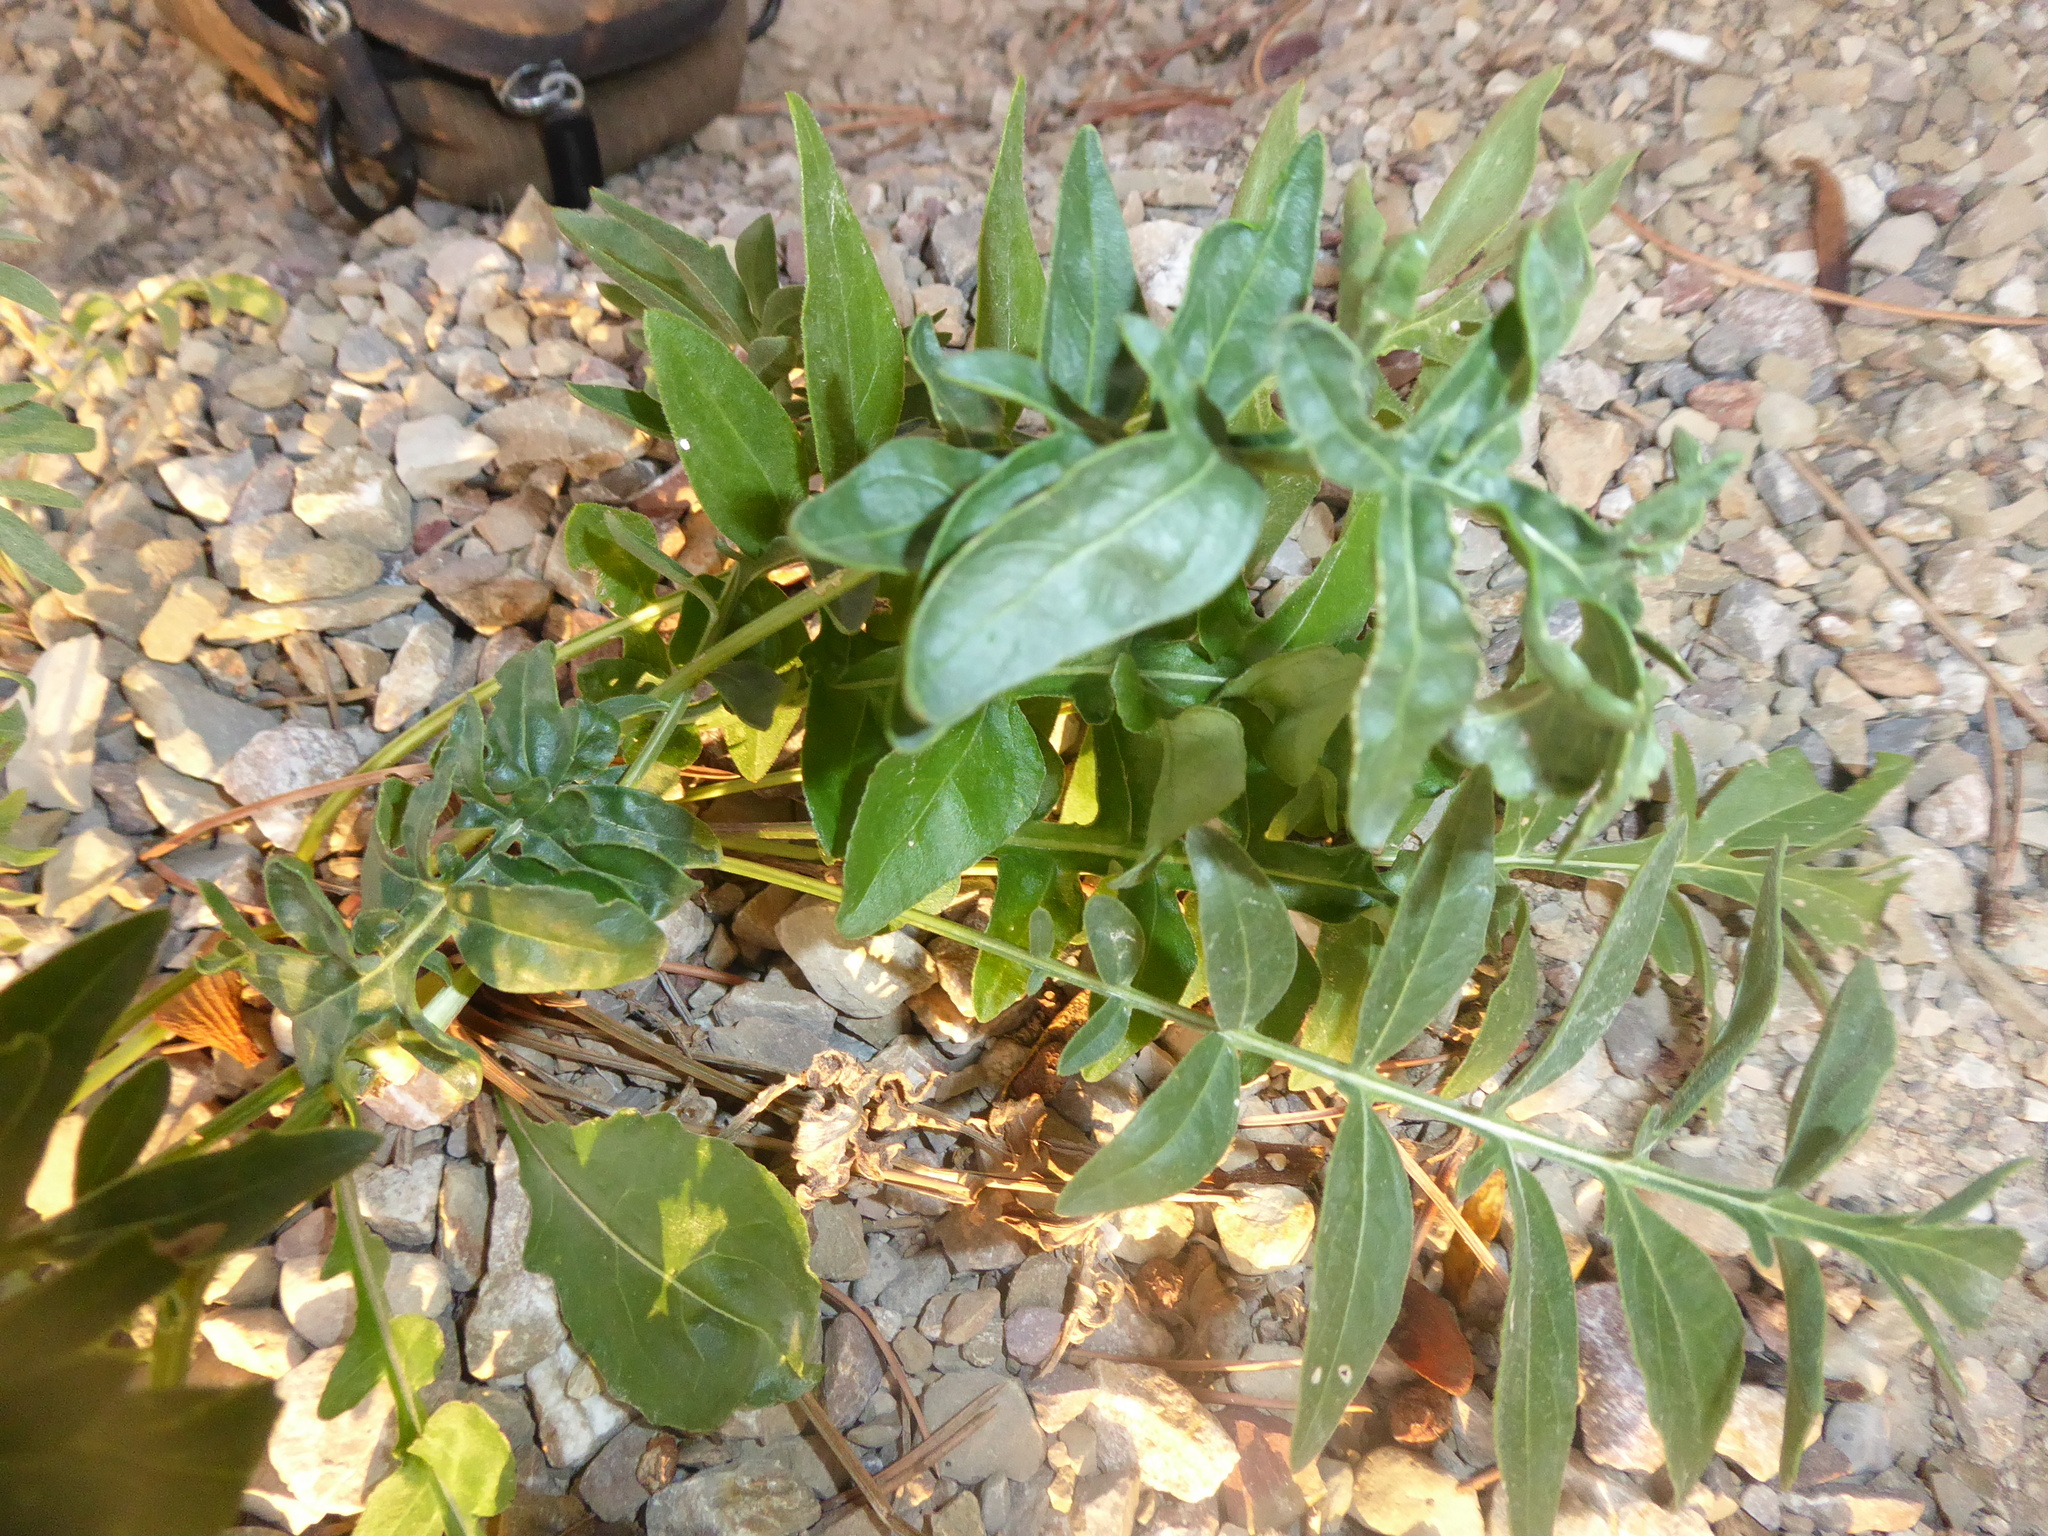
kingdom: Plantae
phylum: Tracheophyta
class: Magnoliopsida
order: Asterales
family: Asteraceae
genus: Centaurea
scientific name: Centaurea scabiosa
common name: Greater knapweed
